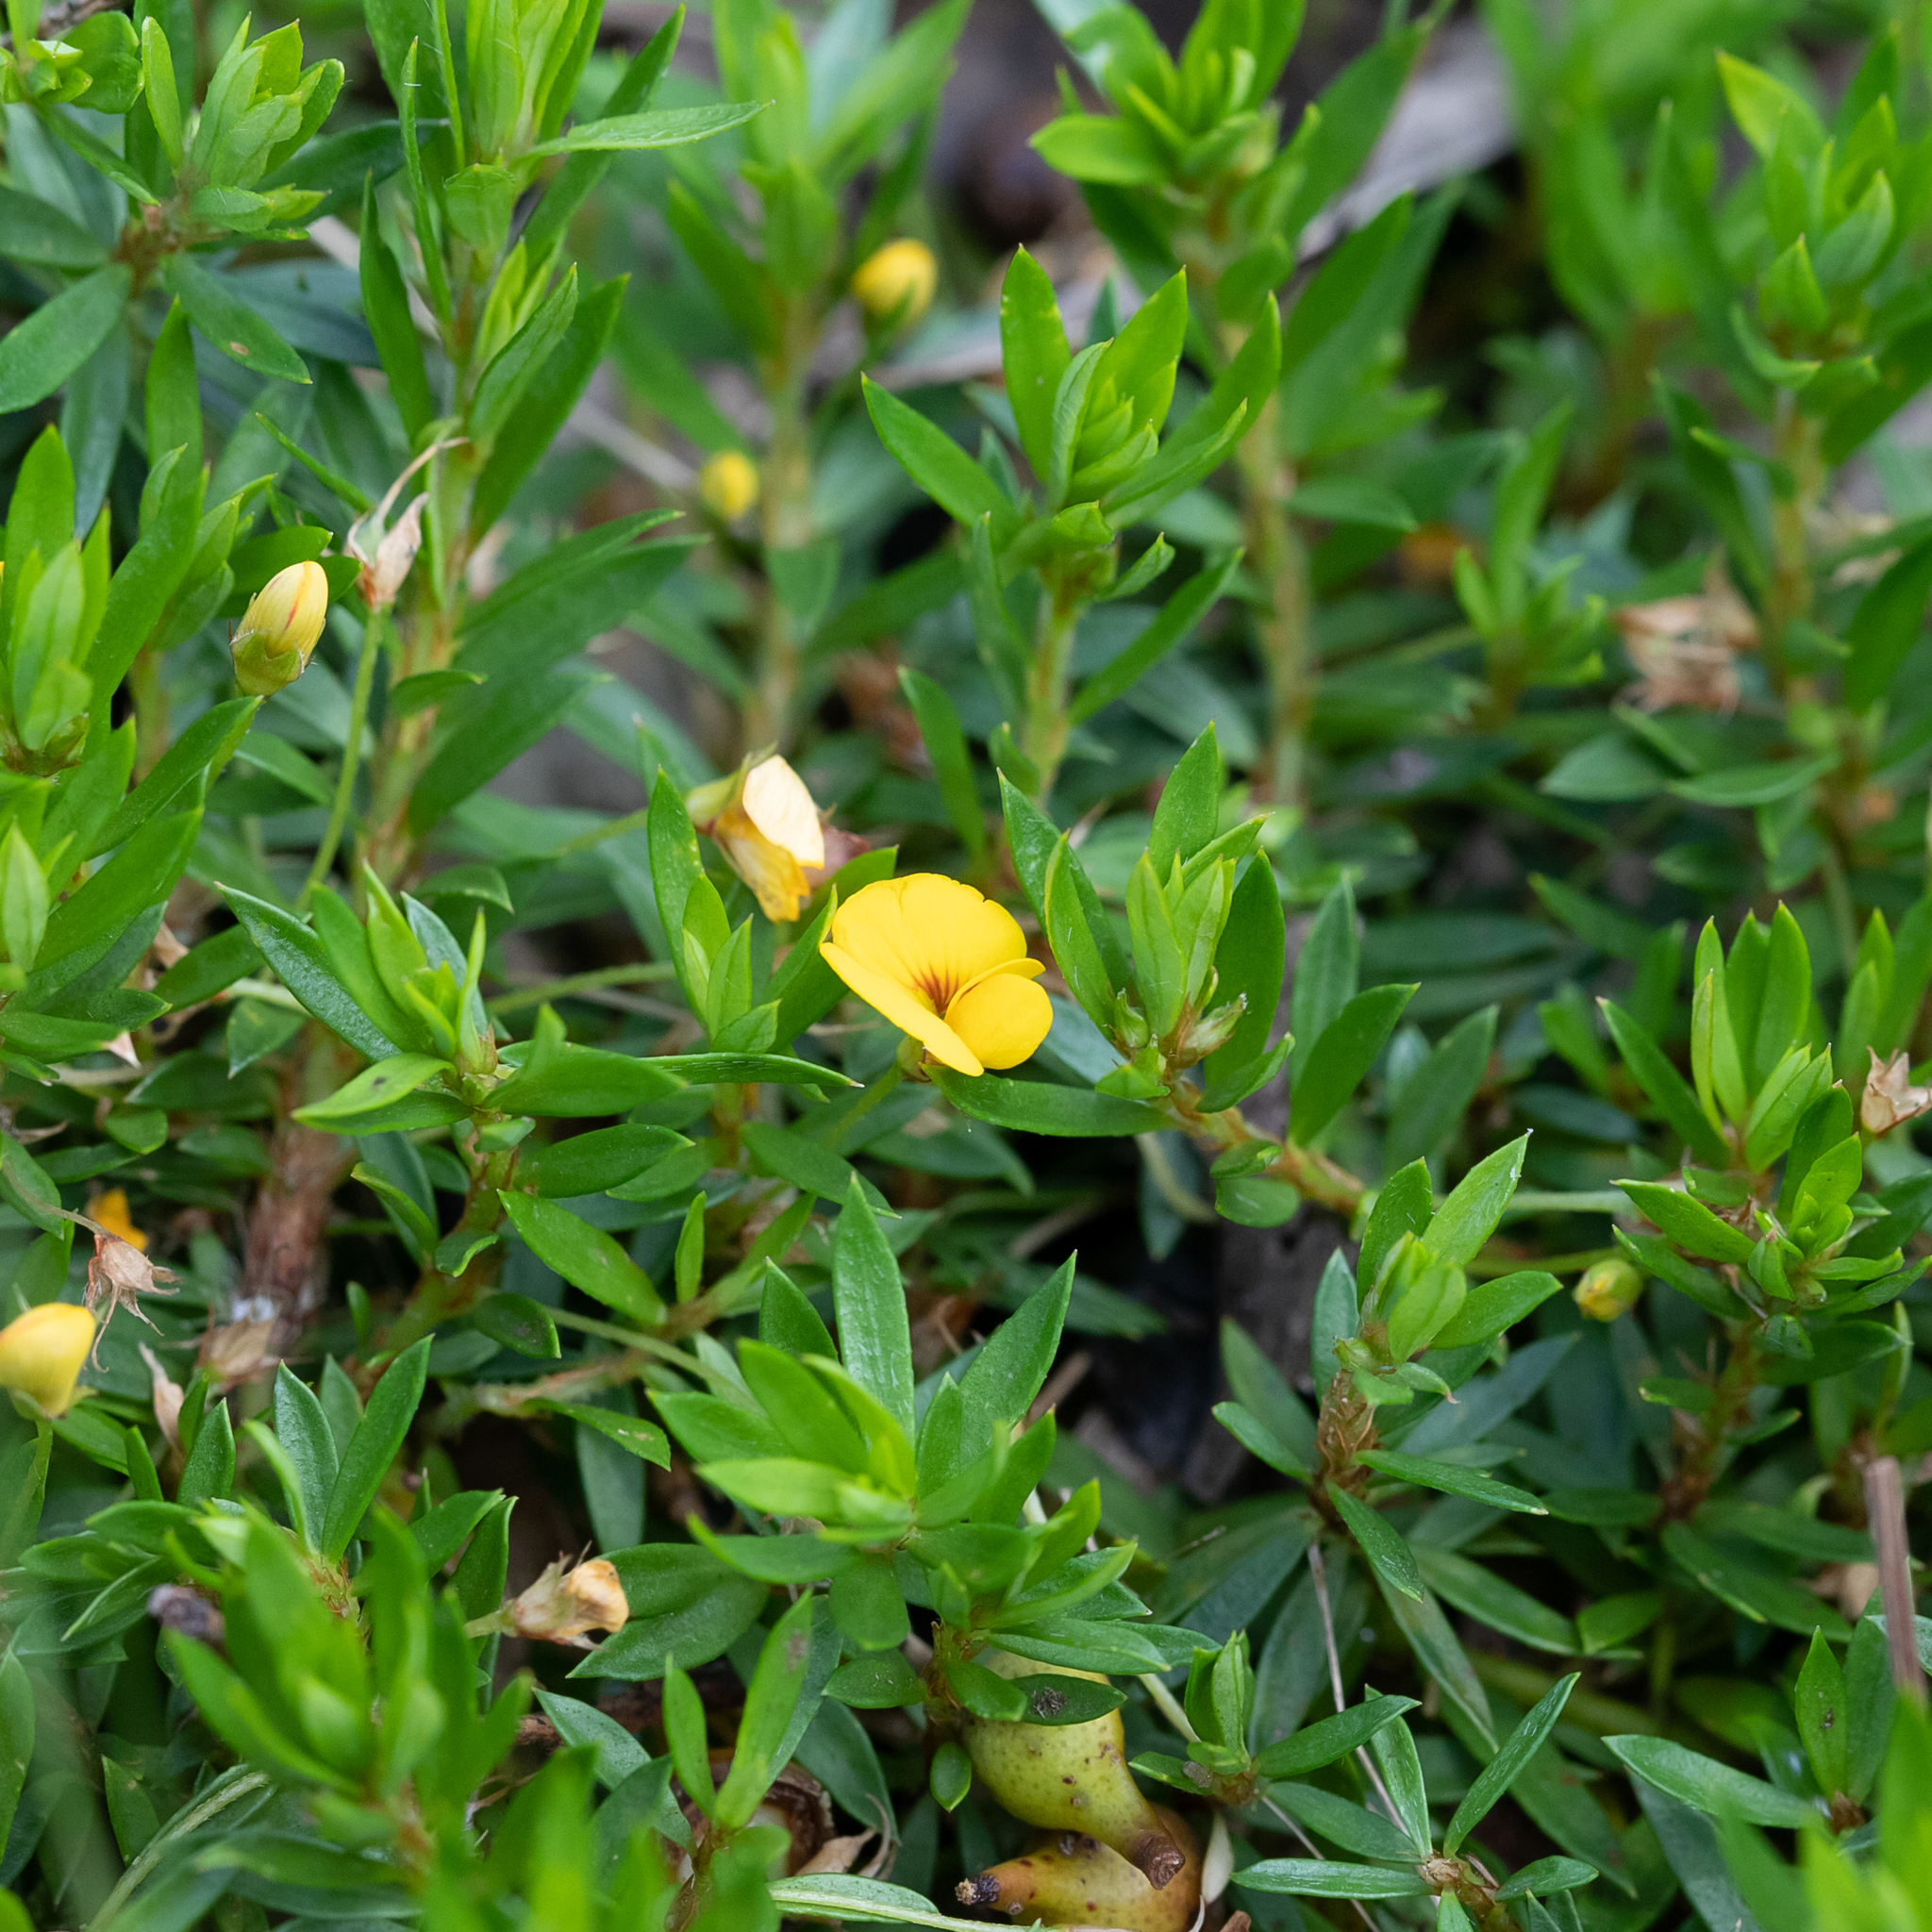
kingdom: Plantae
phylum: Tracheophyta
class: Magnoliopsida
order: Fabales
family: Fabaceae
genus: Pultenaea
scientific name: Pultenaea pedunculata
